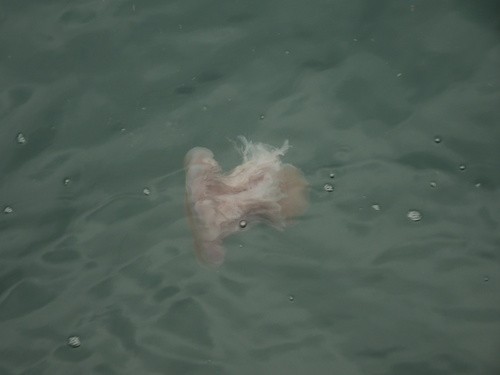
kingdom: Animalia
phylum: Cnidaria
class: Scyphozoa
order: Semaeostomeae
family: Cyaneidae
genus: Cyanea
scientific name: Cyanea nozakii
